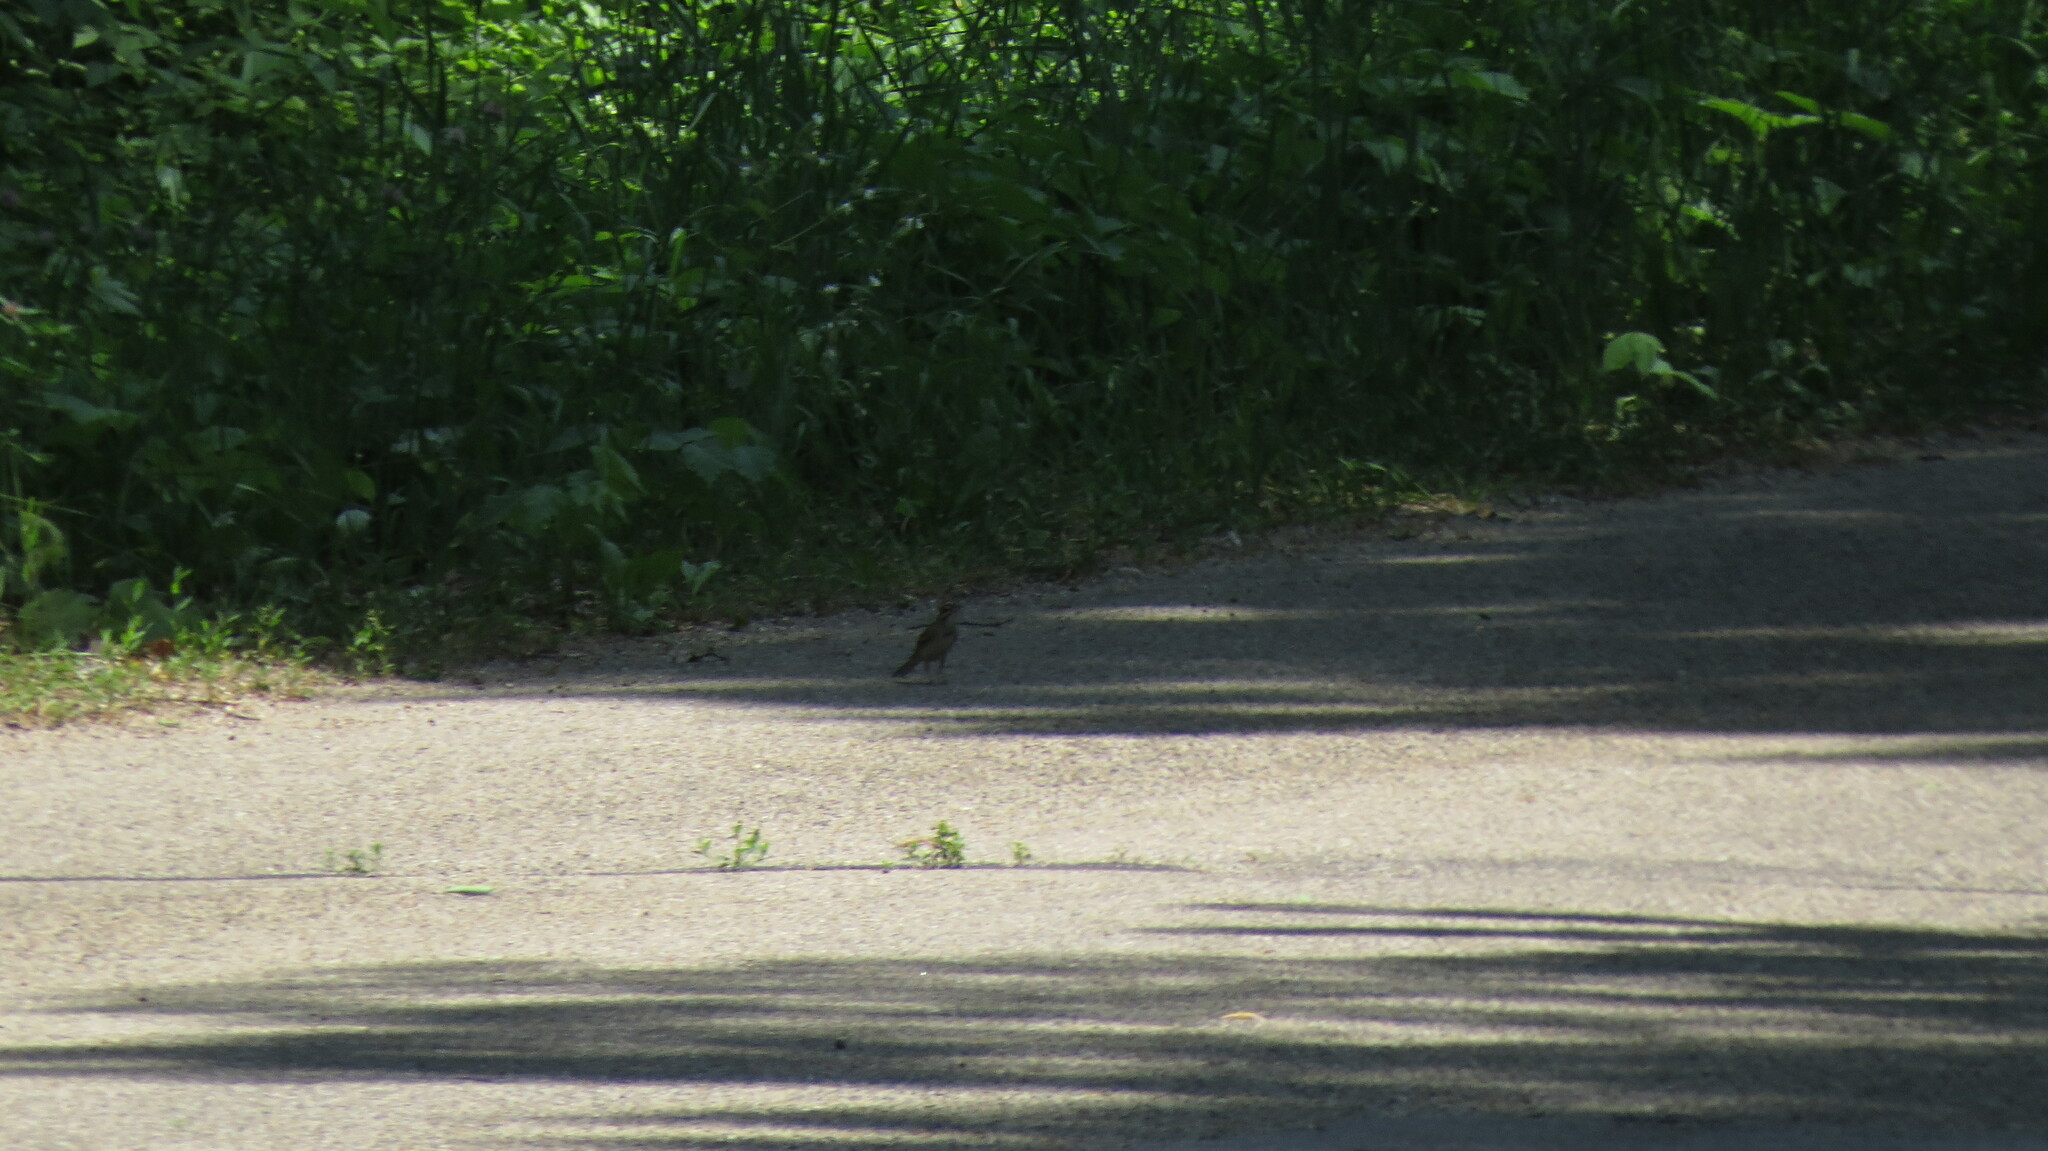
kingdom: Animalia
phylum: Chordata
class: Aves
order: Passeriformes
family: Passerellidae
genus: Chondestes
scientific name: Chondestes grammacus
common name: Lark sparrow
